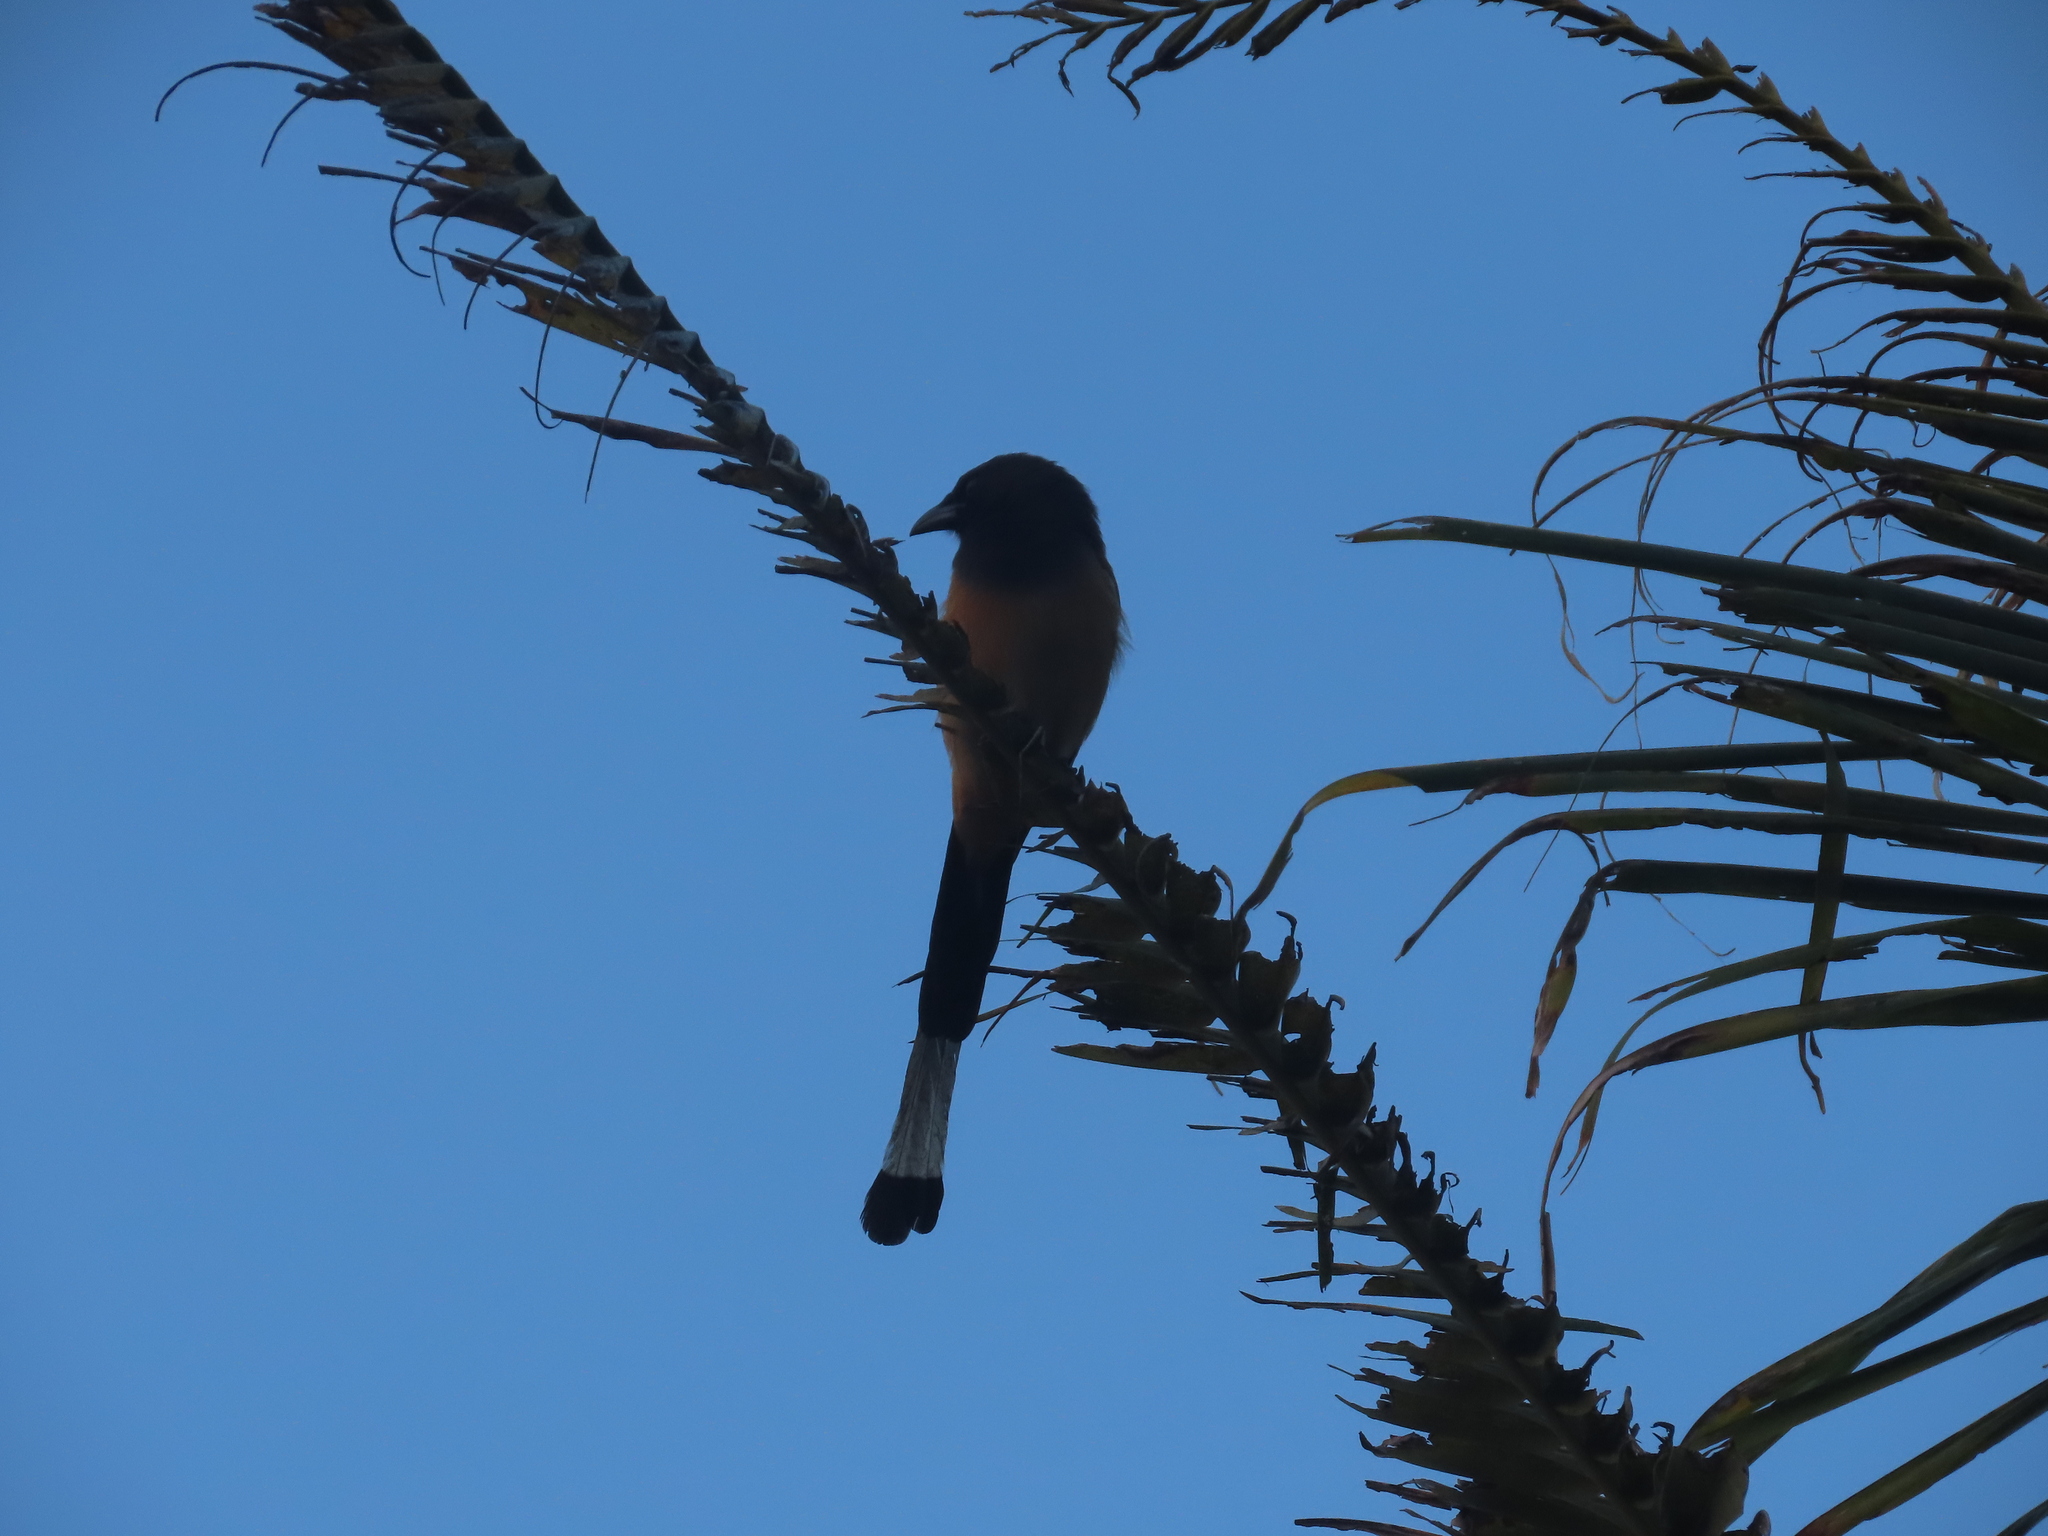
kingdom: Animalia
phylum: Chordata
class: Aves
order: Passeriformes
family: Corvidae
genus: Dendrocitta
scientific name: Dendrocitta vagabunda
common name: Rufous treepie
